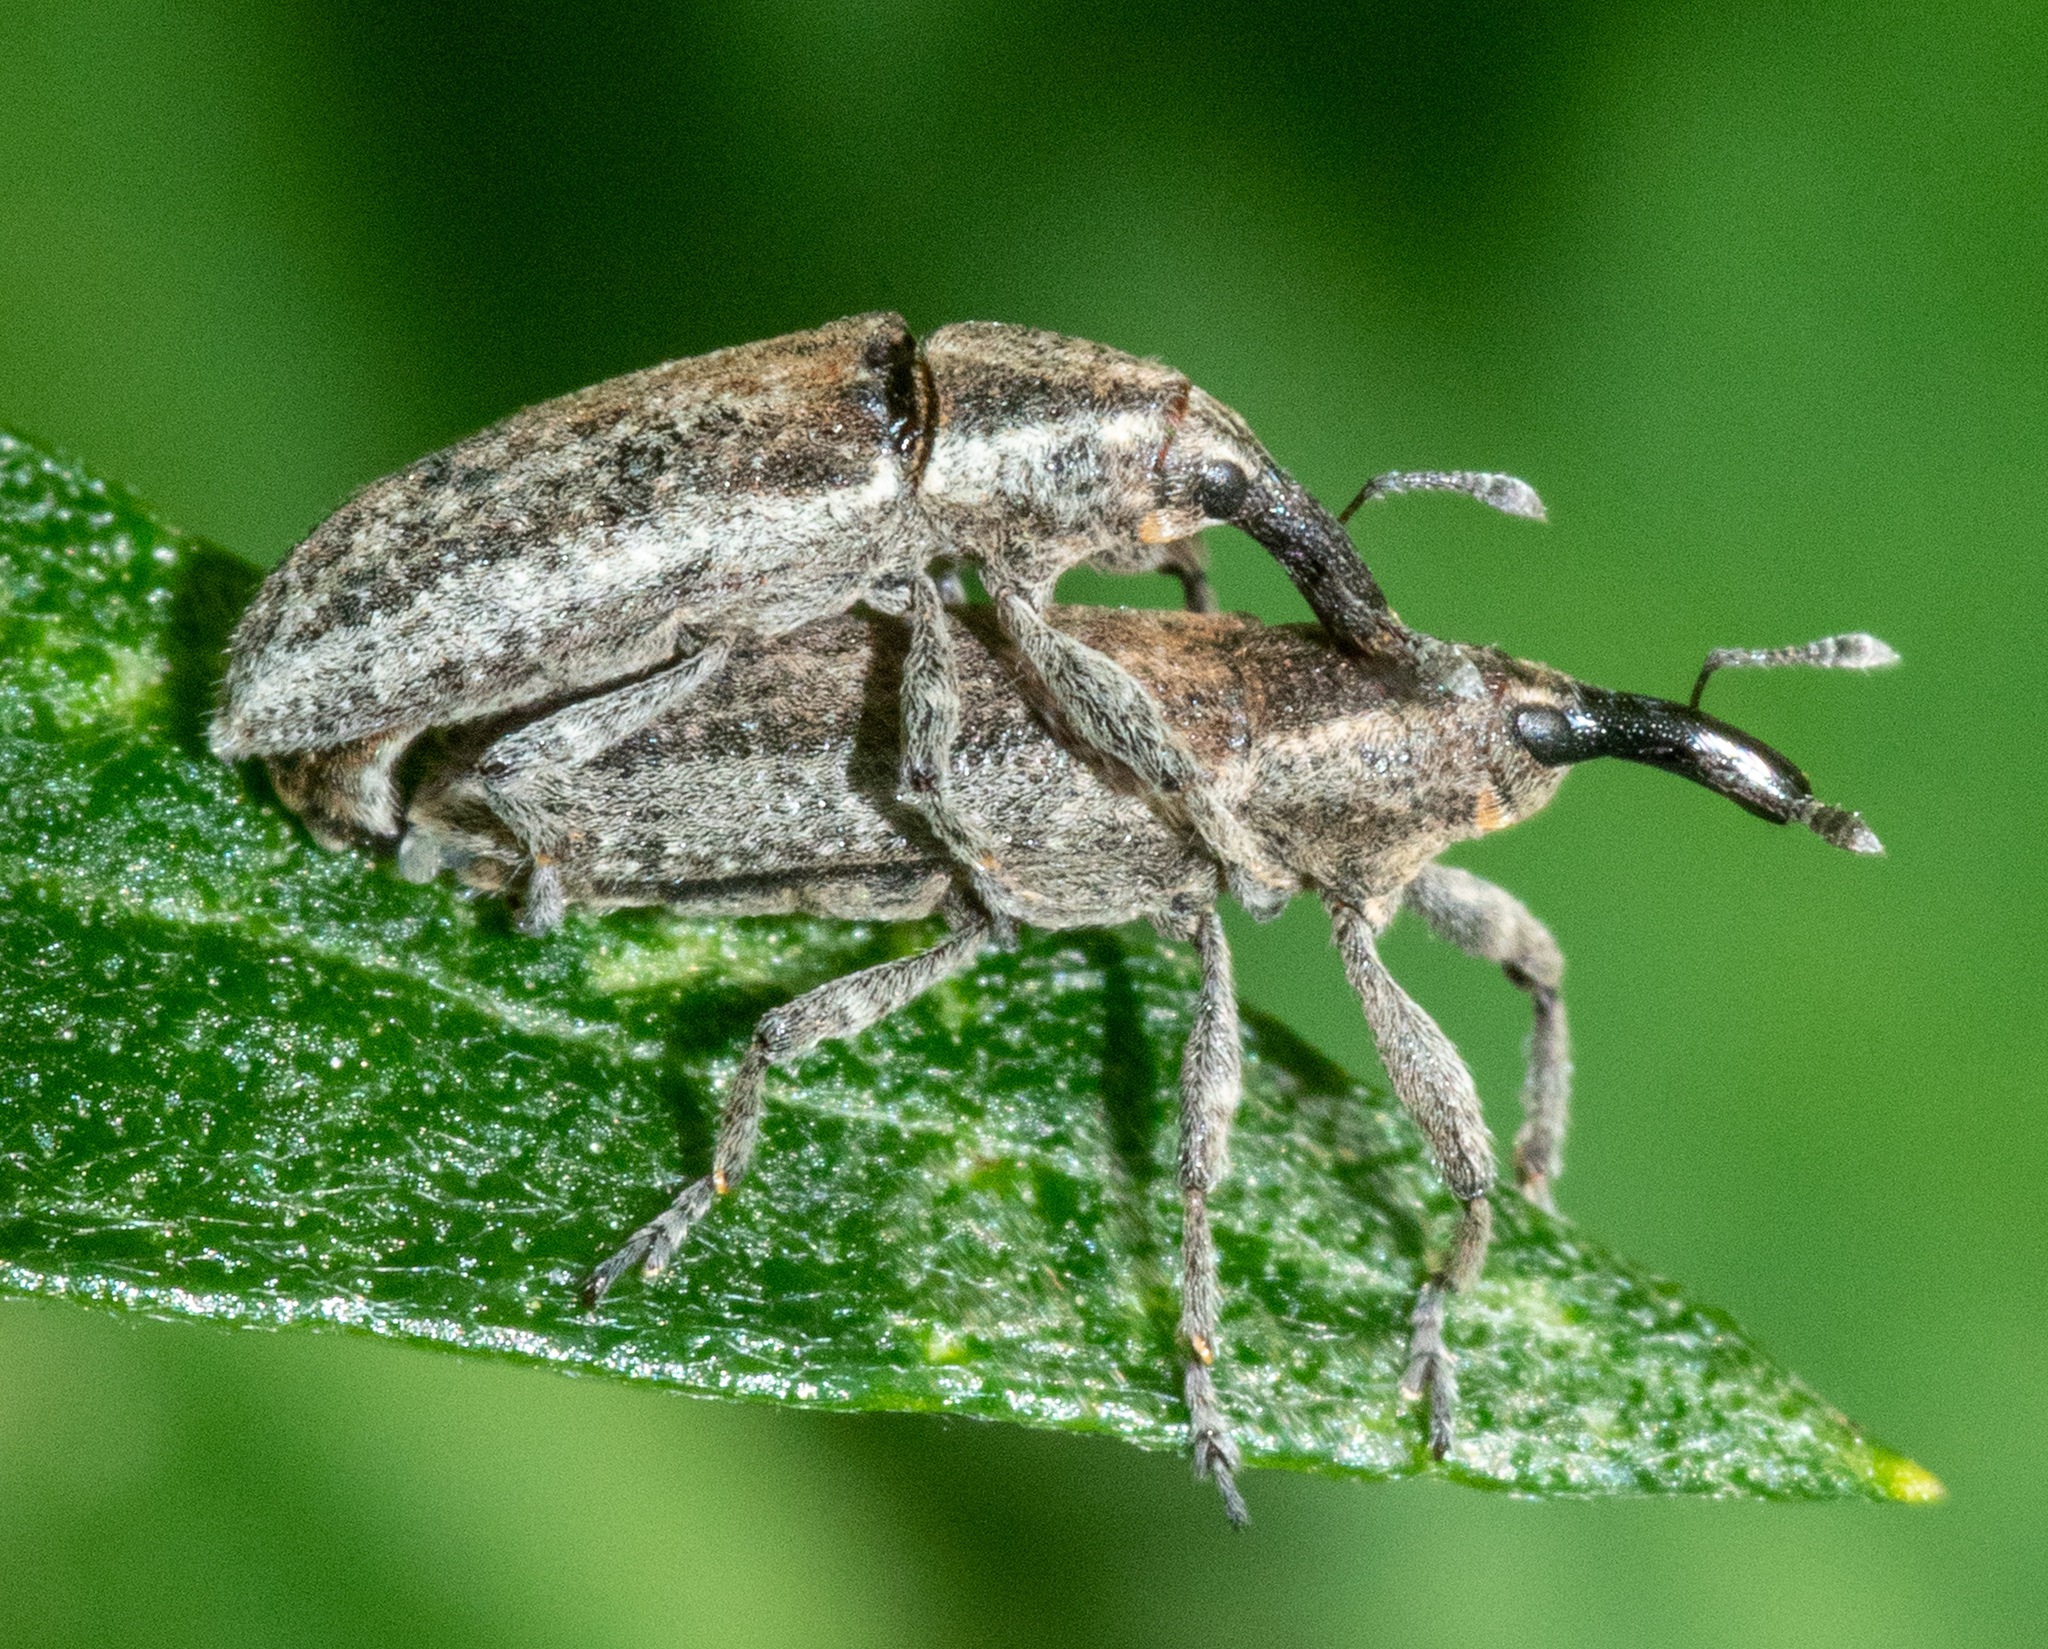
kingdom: Animalia
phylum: Arthropoda
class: Insecta
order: Coleoptera
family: Curculionidae
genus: Lixus
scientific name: Lixus perforatus
